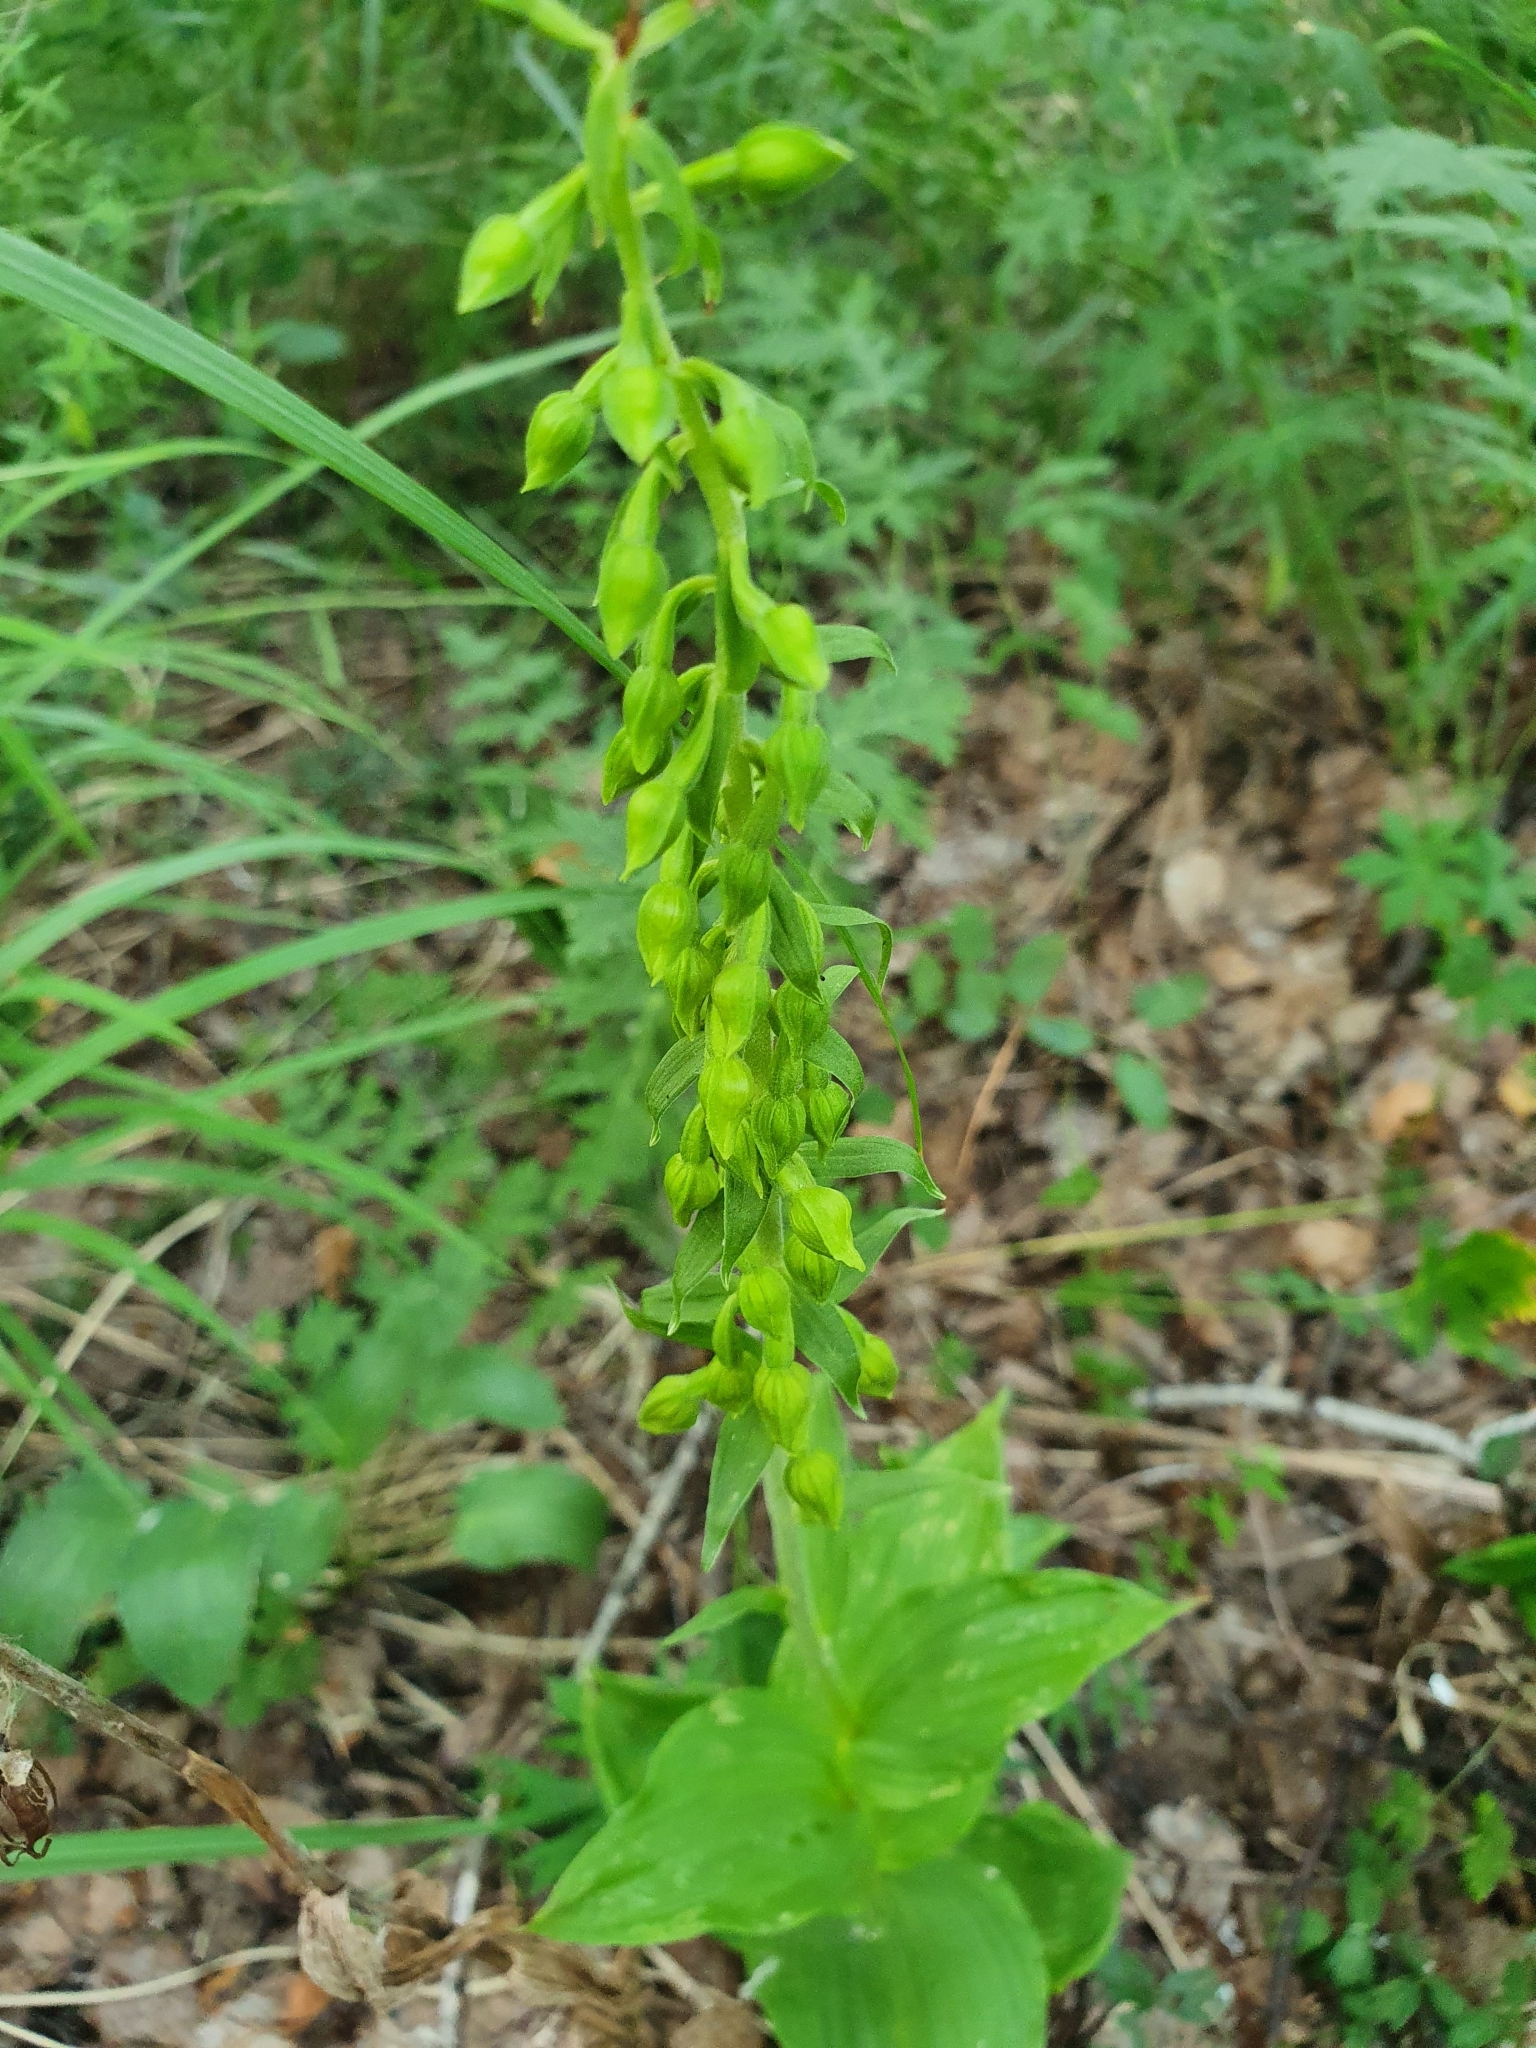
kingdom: Plantae
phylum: Tracheophyta
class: Liliopsida
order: Asparagales
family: Orchidaceae
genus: Epipactis
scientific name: Epipactis helleborine
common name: Broad-leaved helleborine
